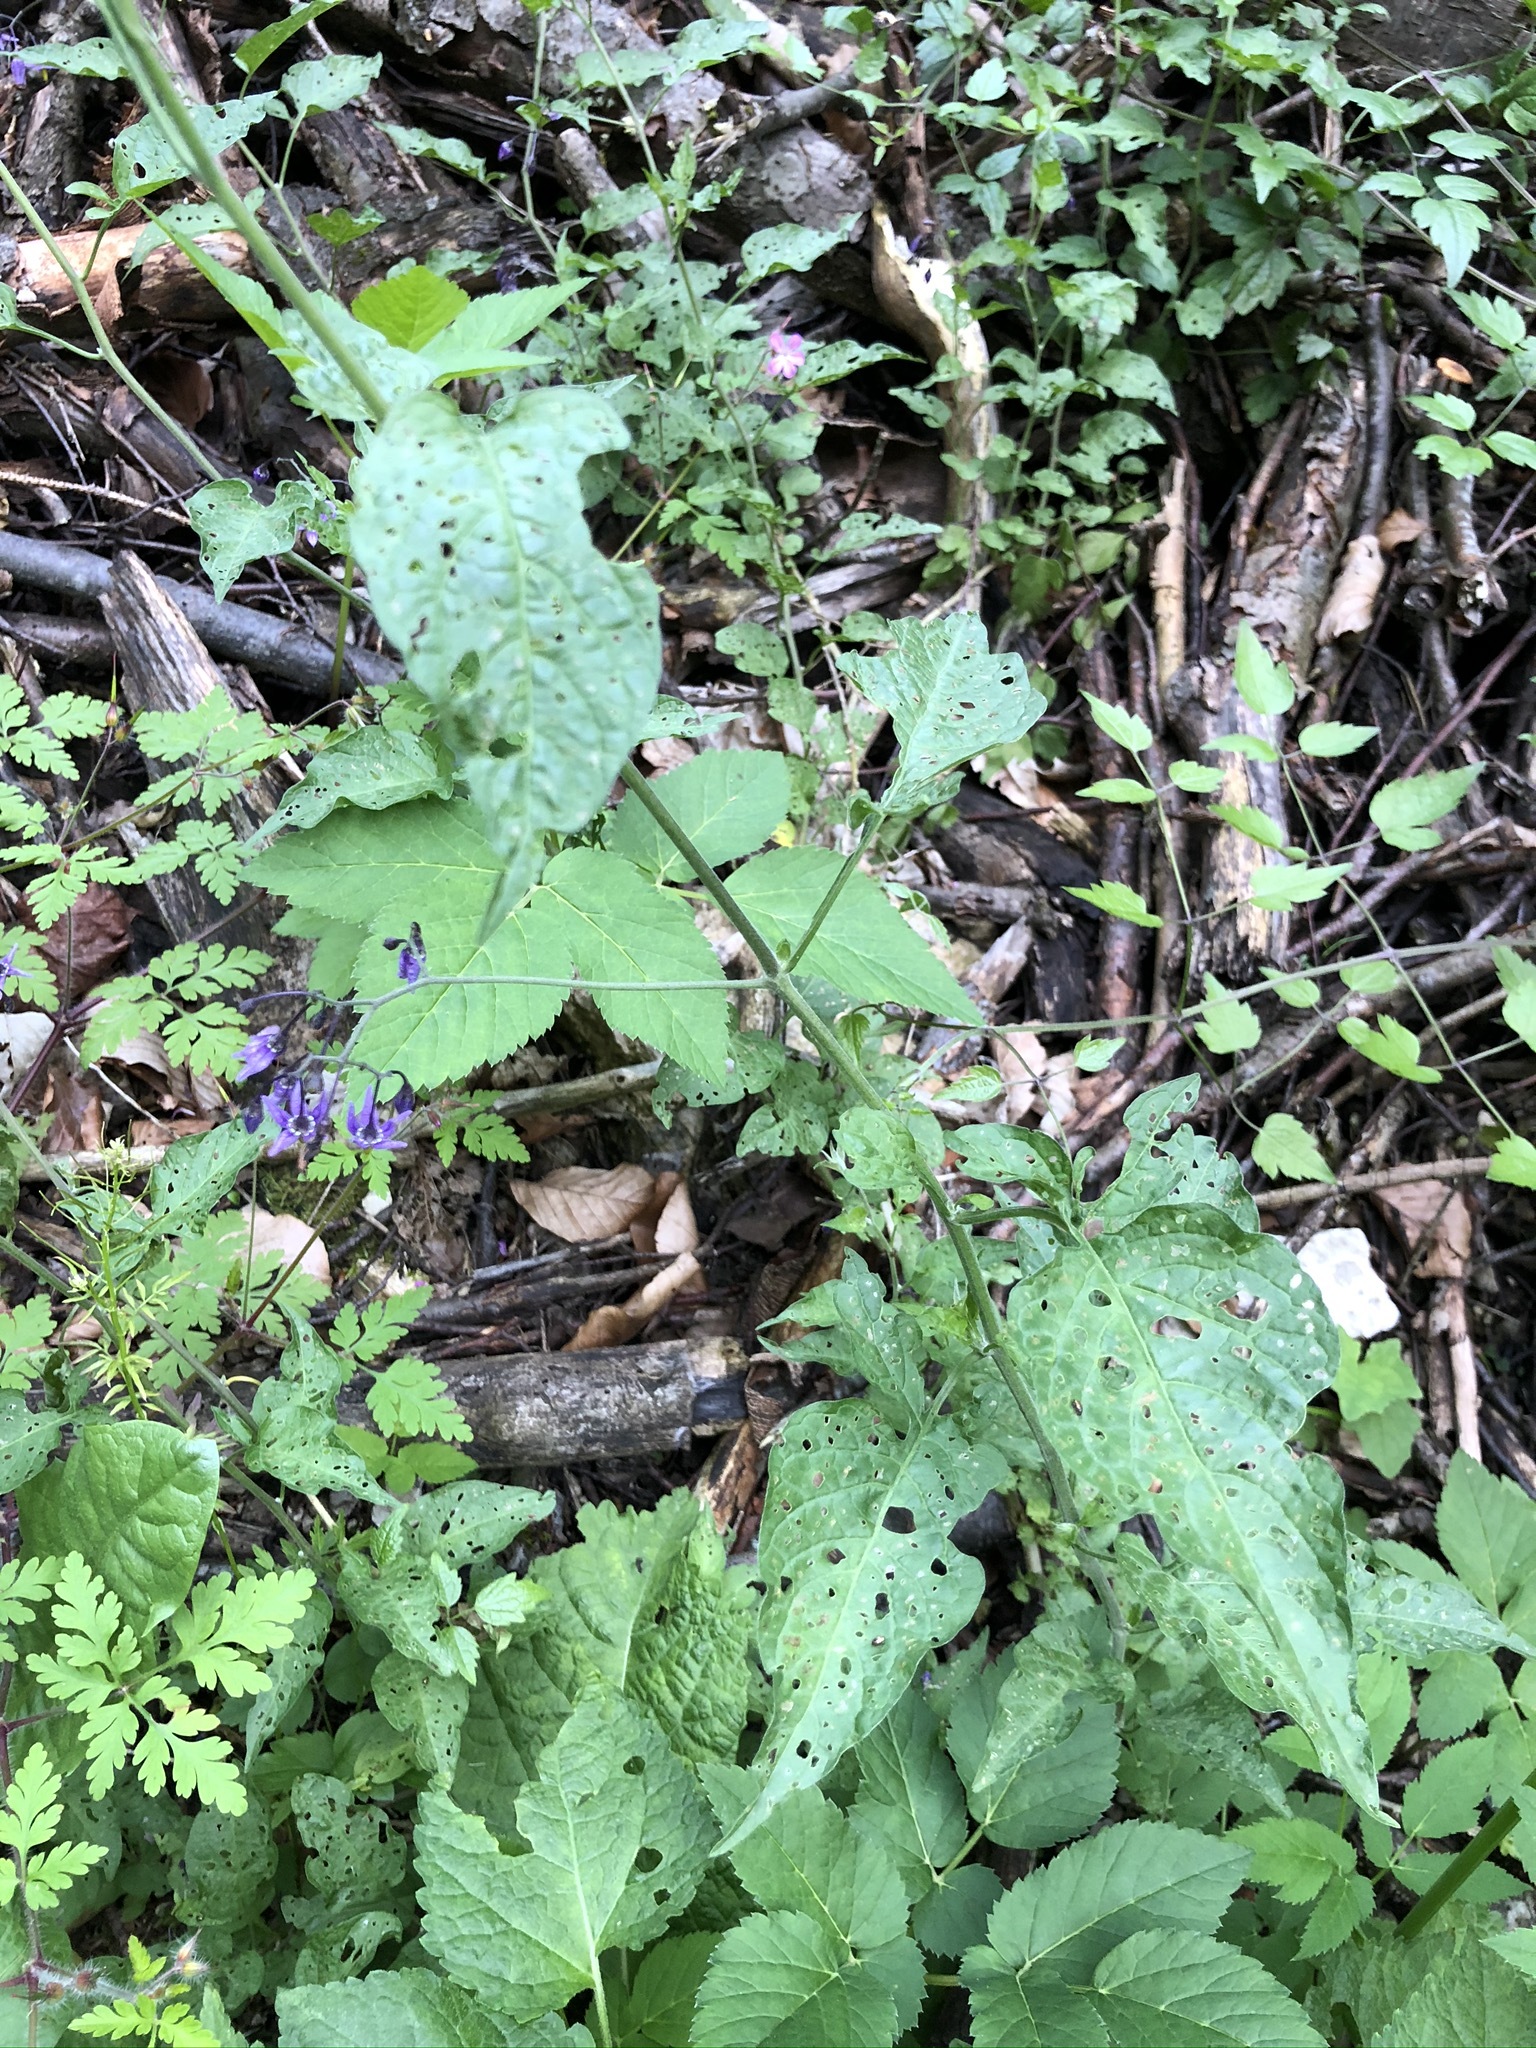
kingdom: Plantae
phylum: Tracheophyta
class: Magnoliopsida
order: Solanales
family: Solanaceae
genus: Solanum
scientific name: Solanum dulcamara
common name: Climbing nightshade
